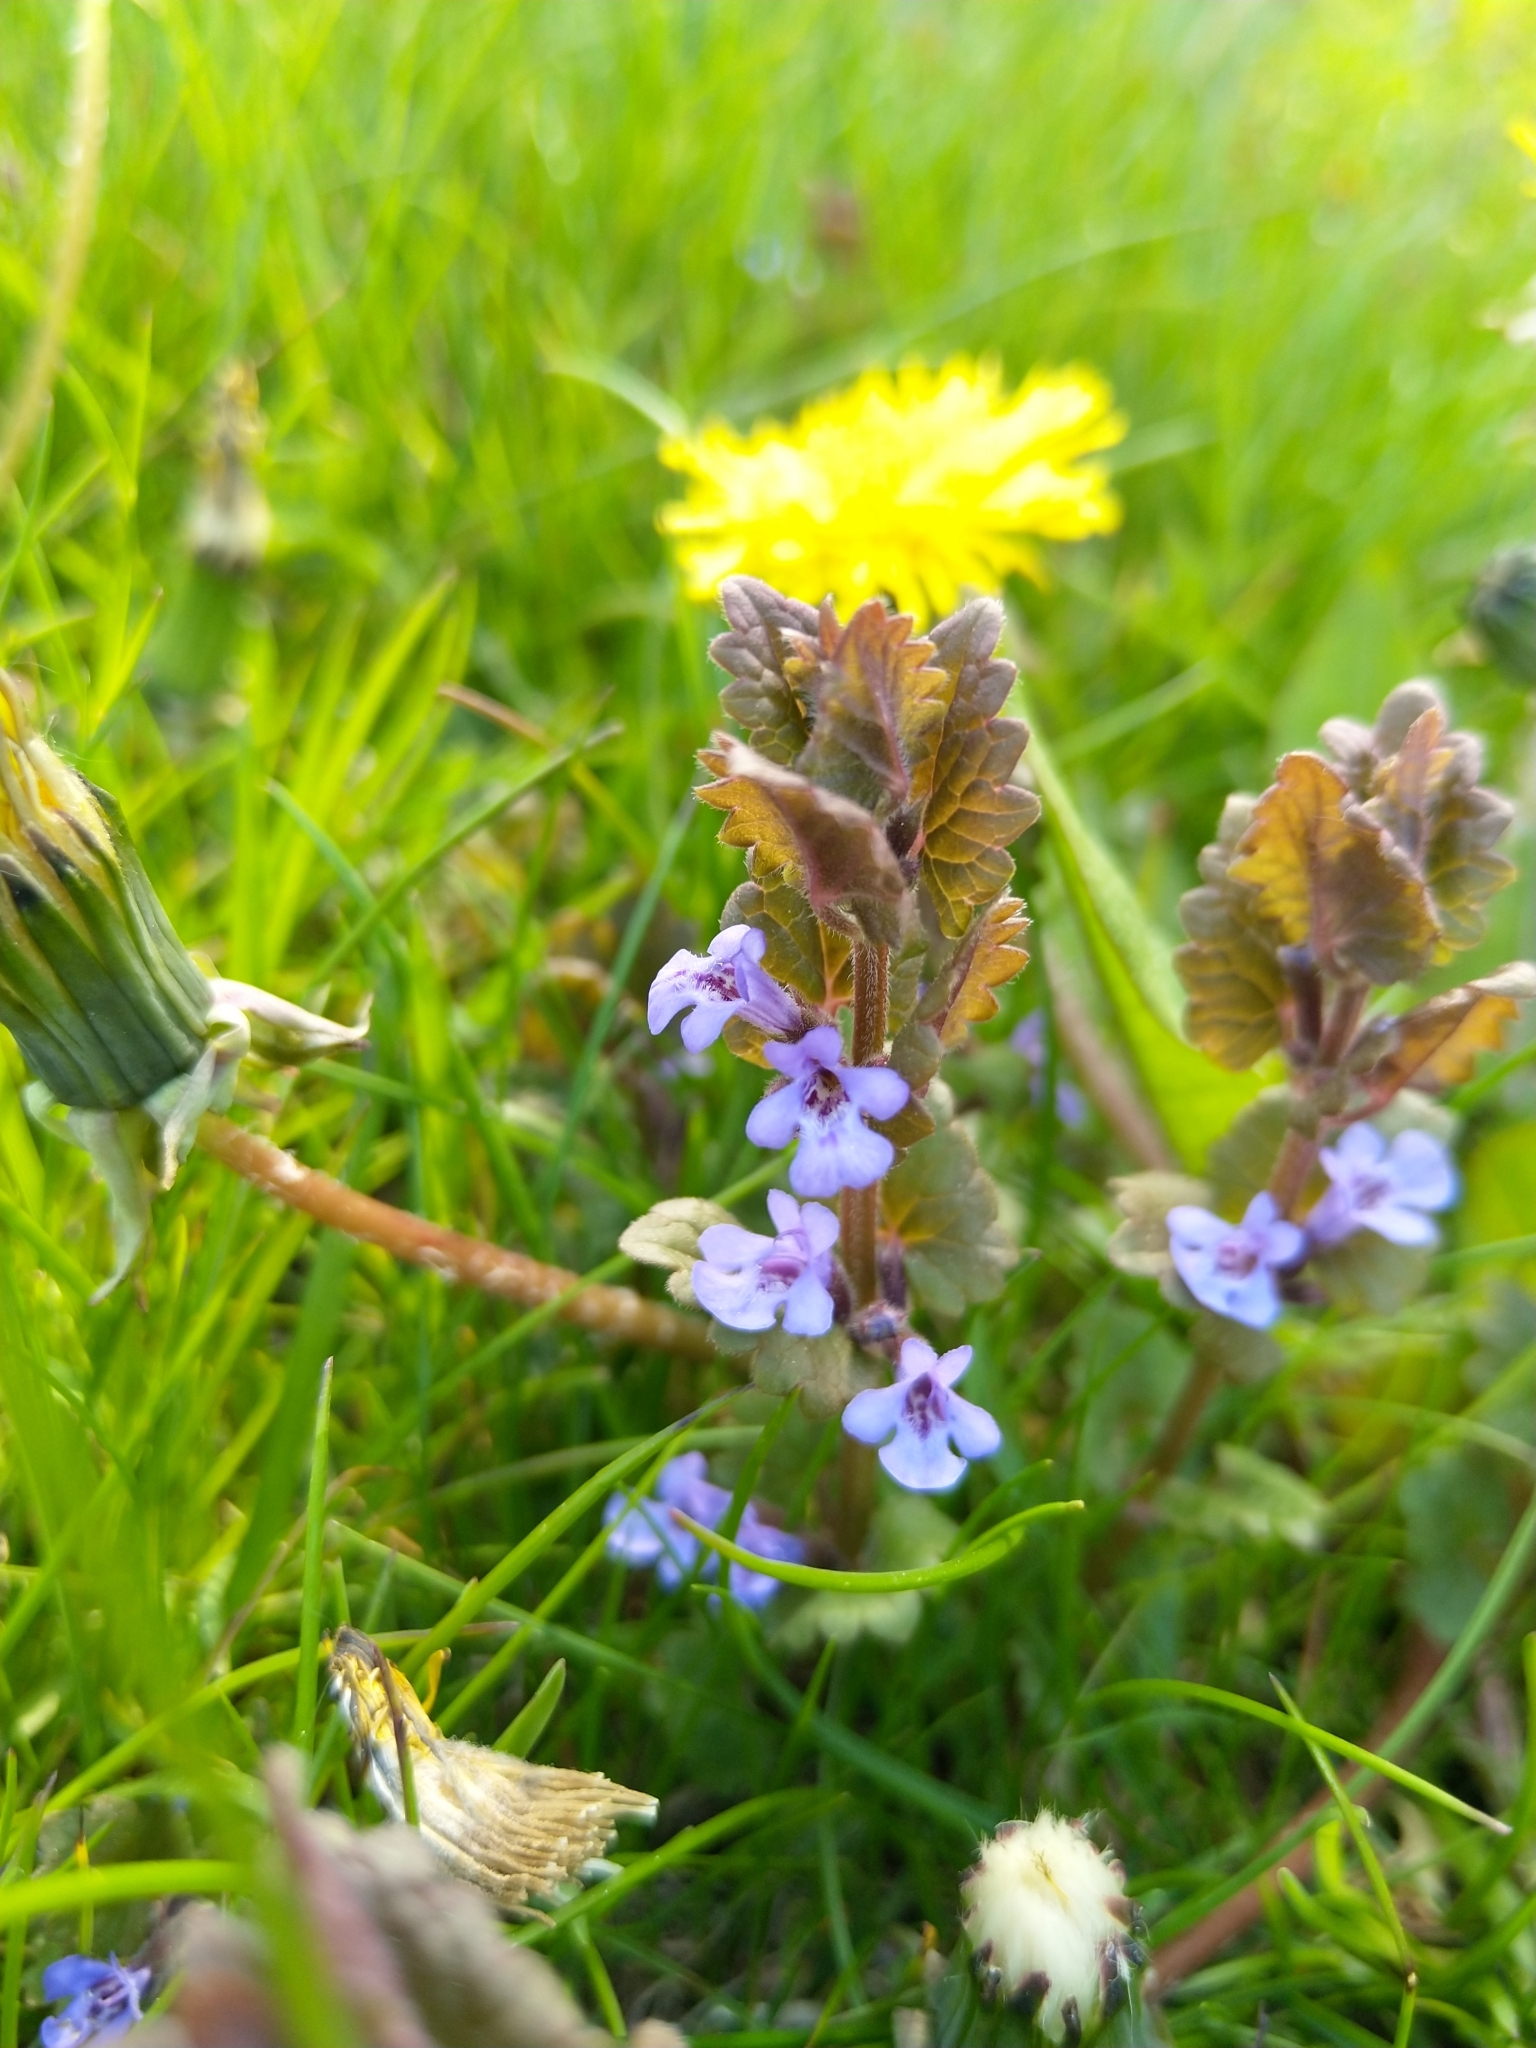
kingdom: Plantae
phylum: Tracheophyta
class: Magnoliopsida
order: Lamiales
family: Lamiaceae
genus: Glechoma
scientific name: Glechoma hederacea
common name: Ground ivy
